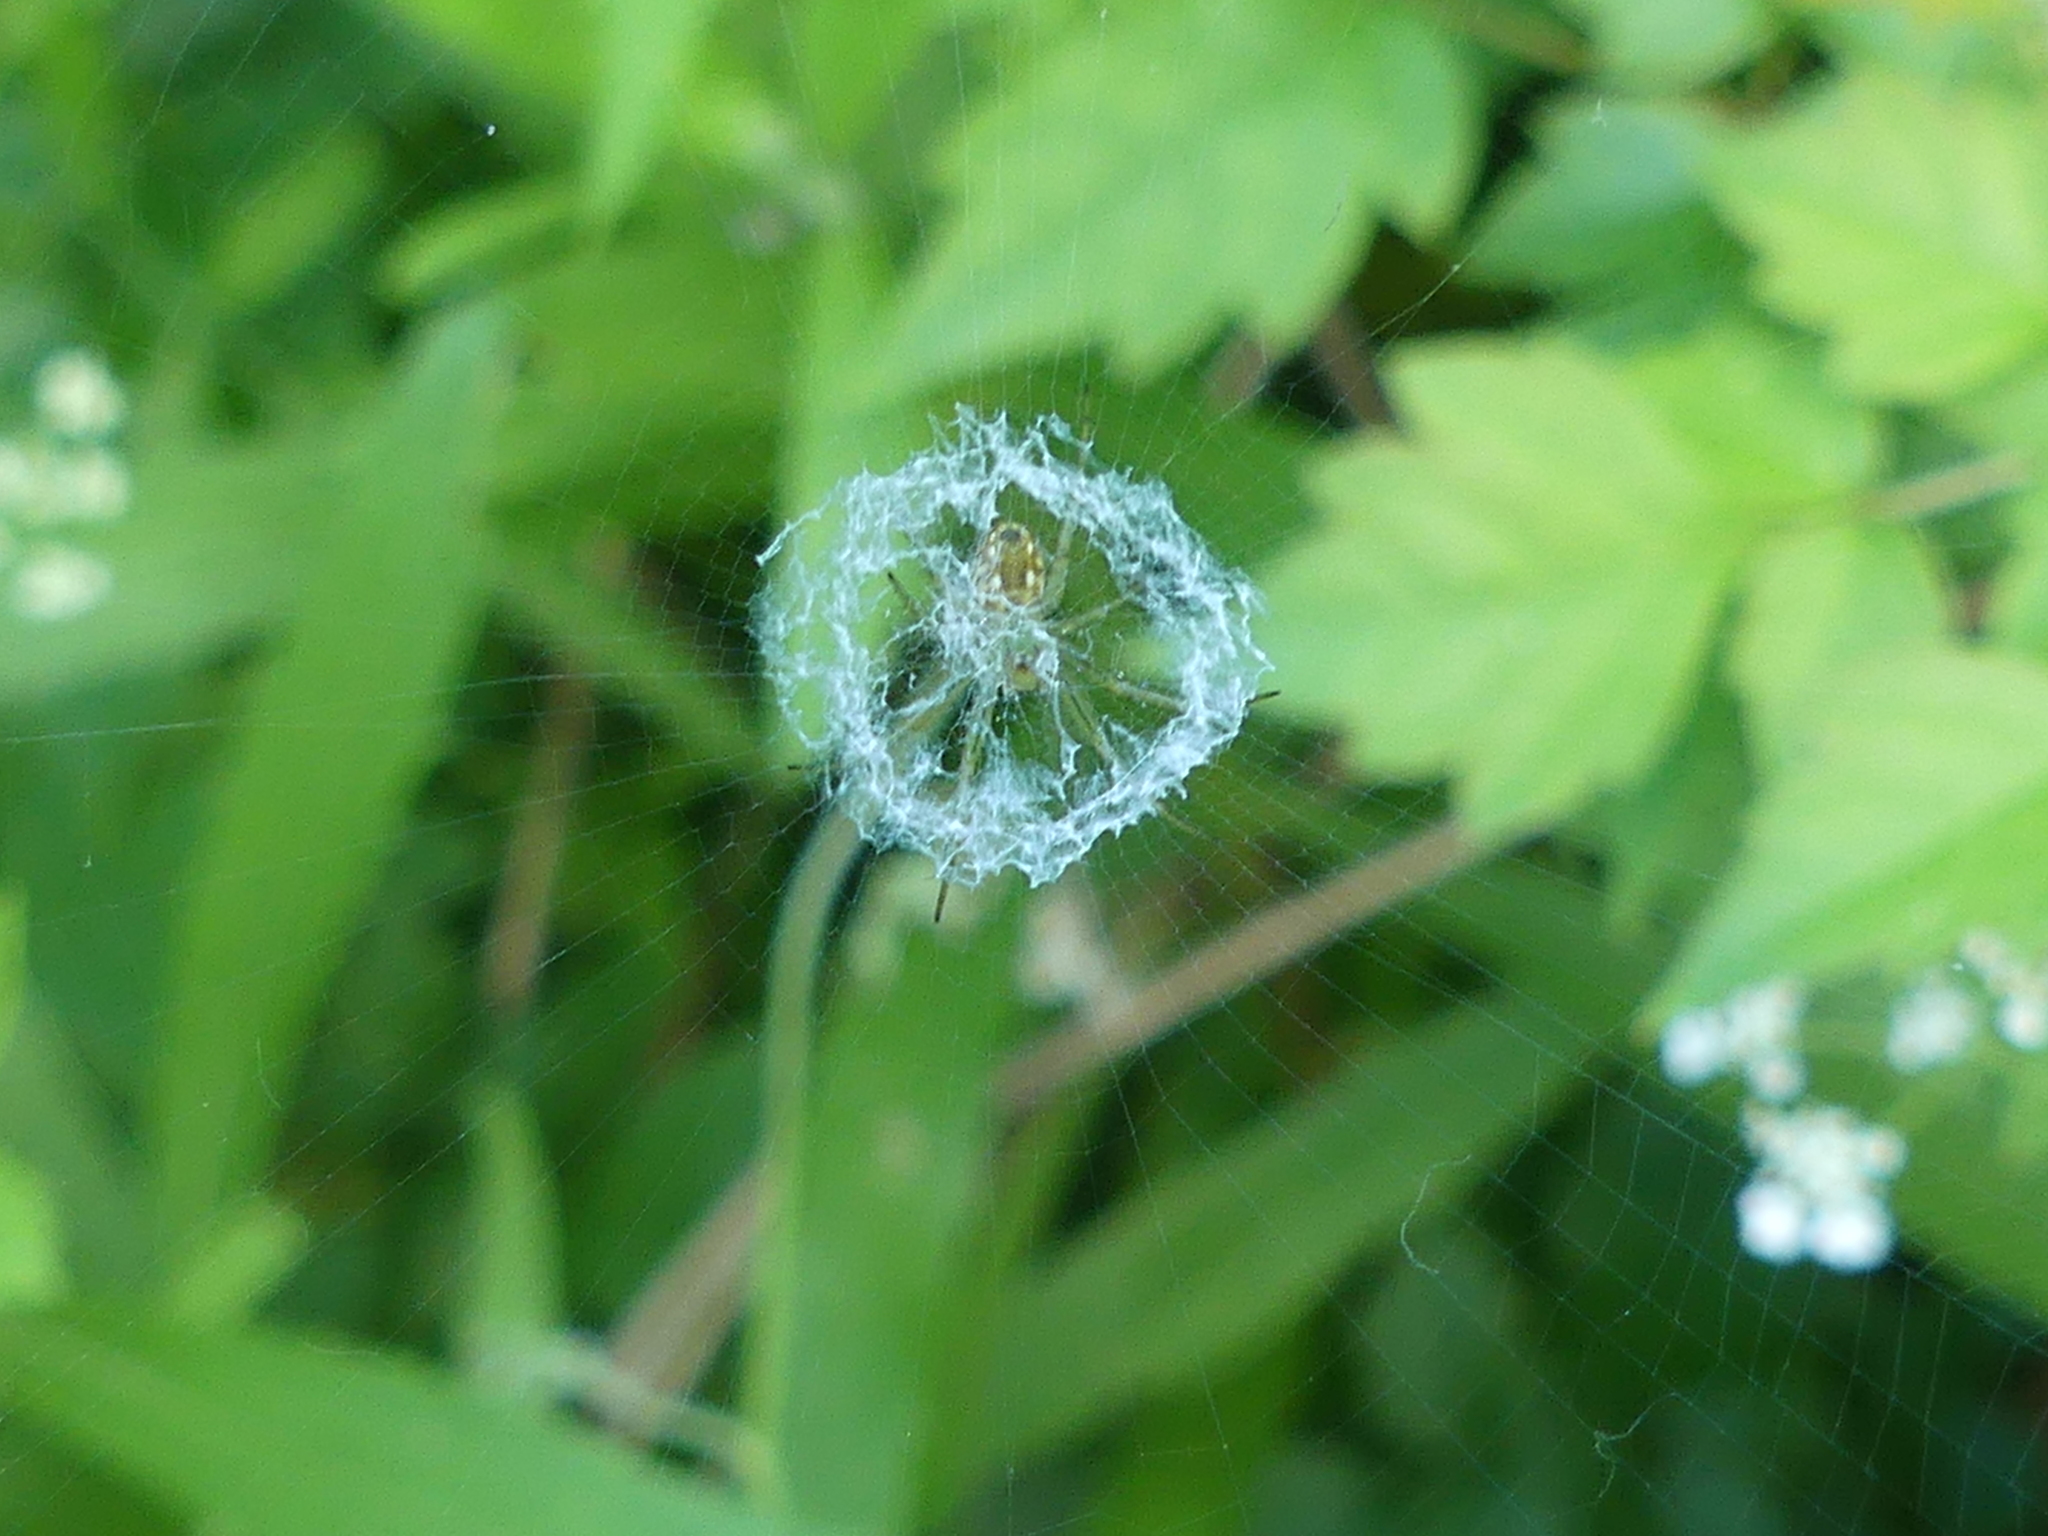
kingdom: Animalia
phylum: Arthropoda
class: Arachnida
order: Araneae
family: Araneidae
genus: Mangora
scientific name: Mangora gibberosa
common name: Lined orbweaver
